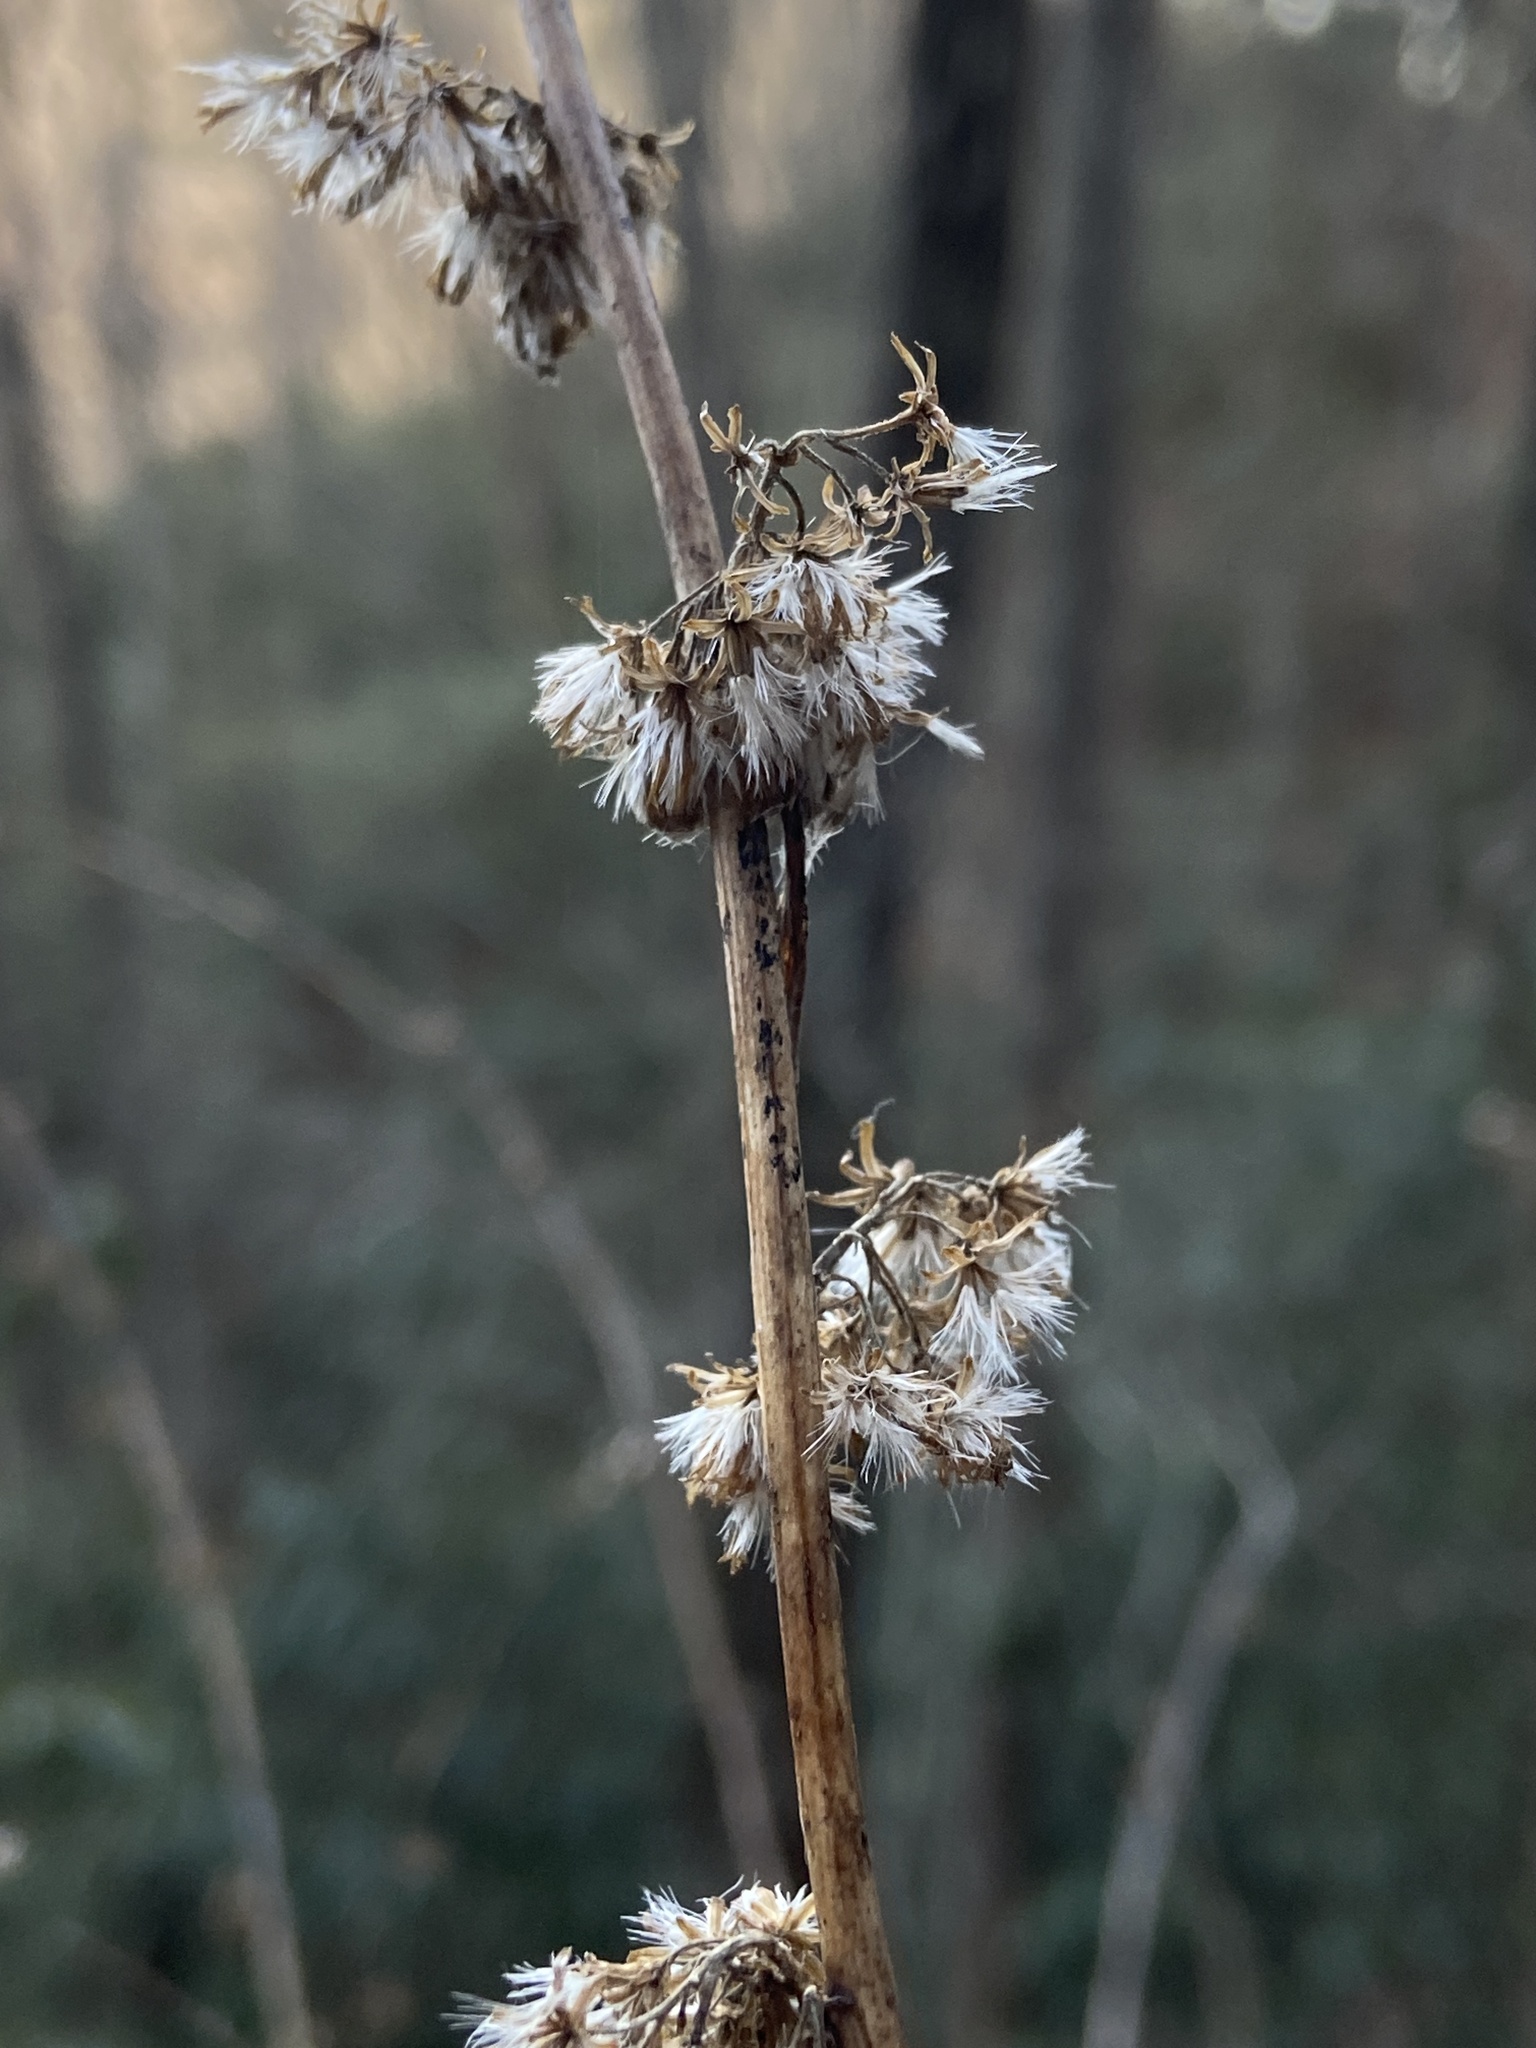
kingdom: Plantae
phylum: Tracheophyta
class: Magnoliopsida
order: Asterales
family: Asteraceae
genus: Solidago
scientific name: Solidago curtisii
